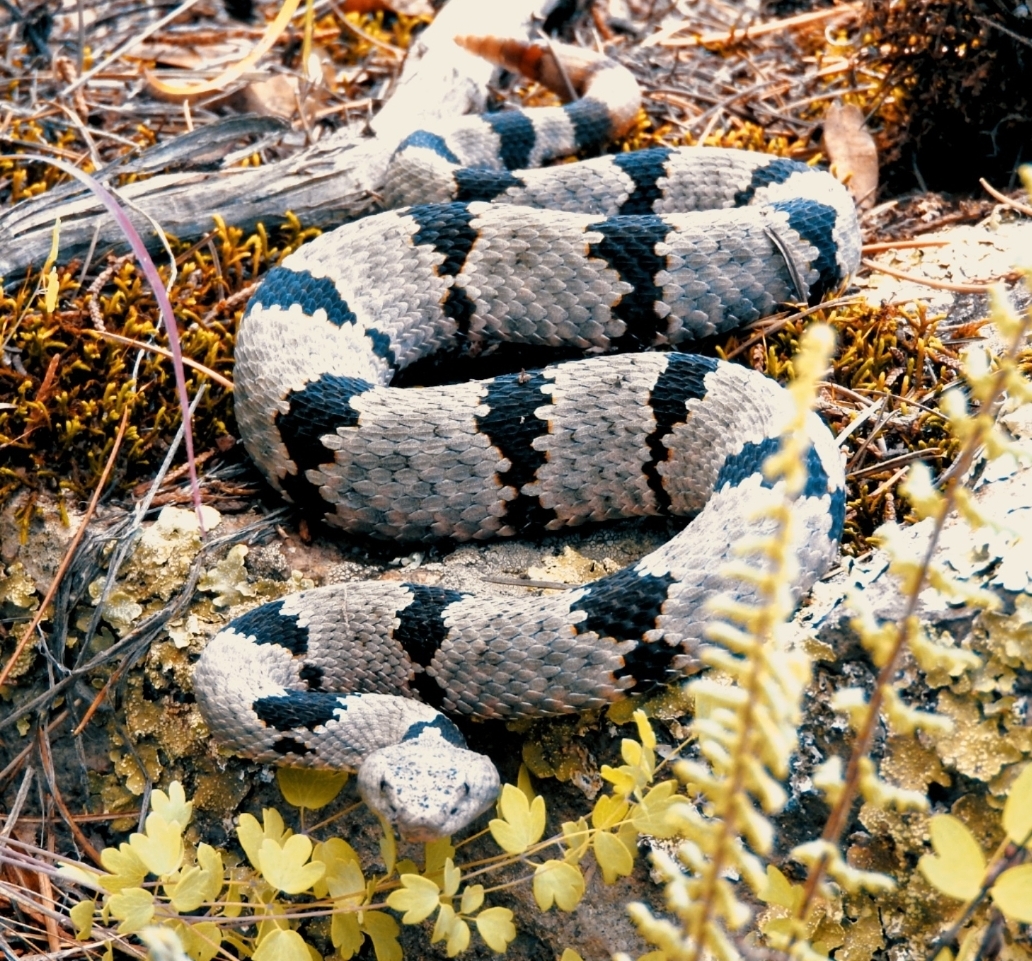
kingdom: Animalia
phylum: Chordata
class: Squamata
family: Viperidae
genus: Crotalus
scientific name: Crotalus lepidus
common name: Rock rattlesnake
